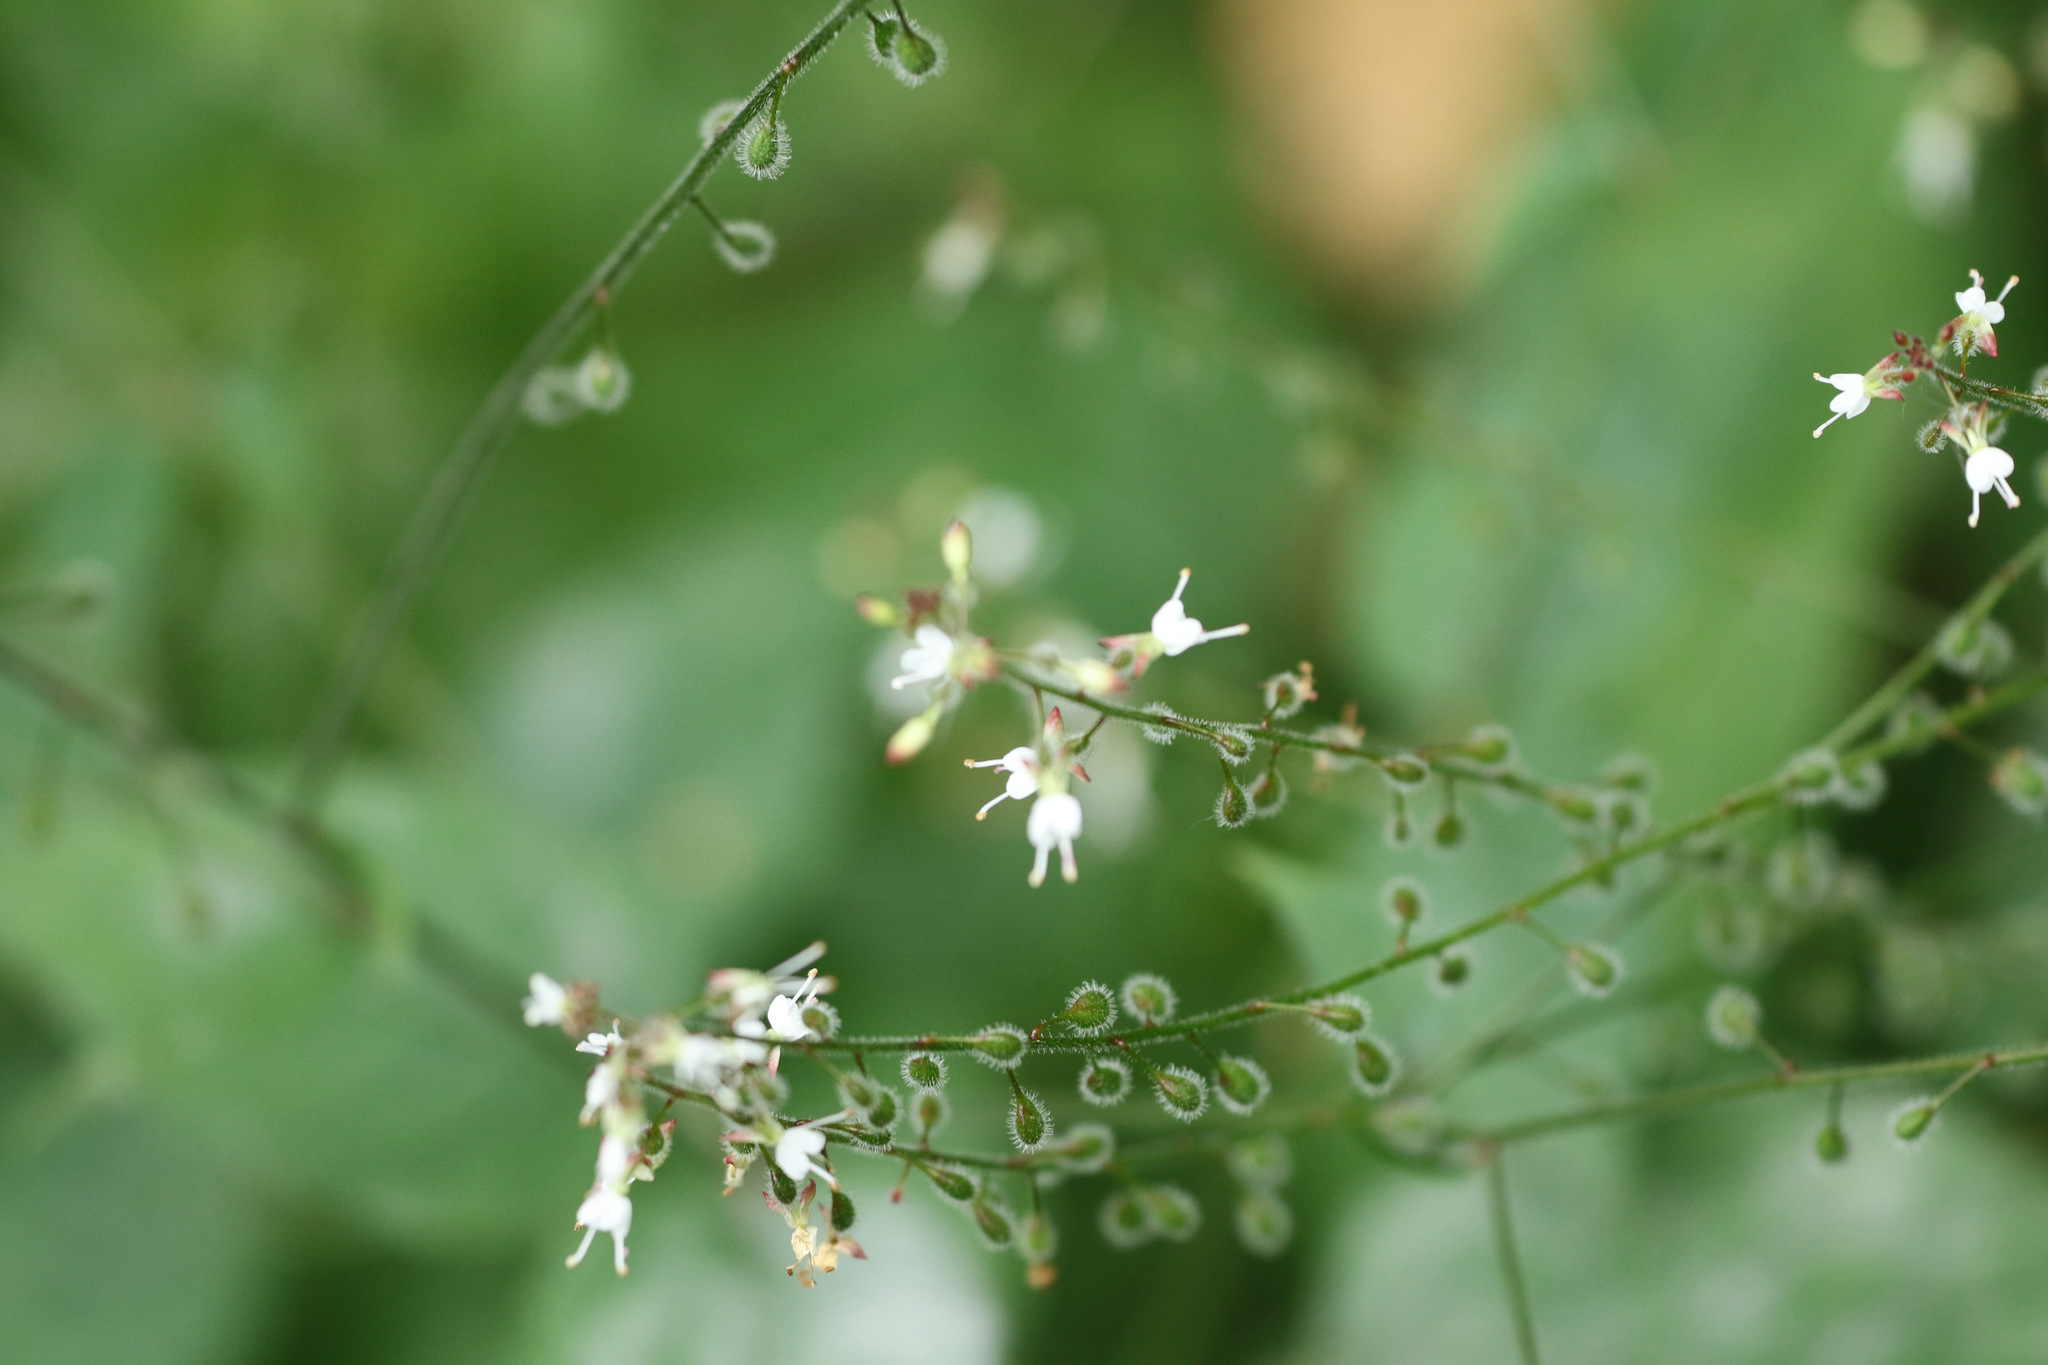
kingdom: Plantae
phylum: Tracheophyta
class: Magnoliopsida
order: Myrtales
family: Onagraceae
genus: Circaea
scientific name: Circaea lutetiana
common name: Enchanter's-nightshade
